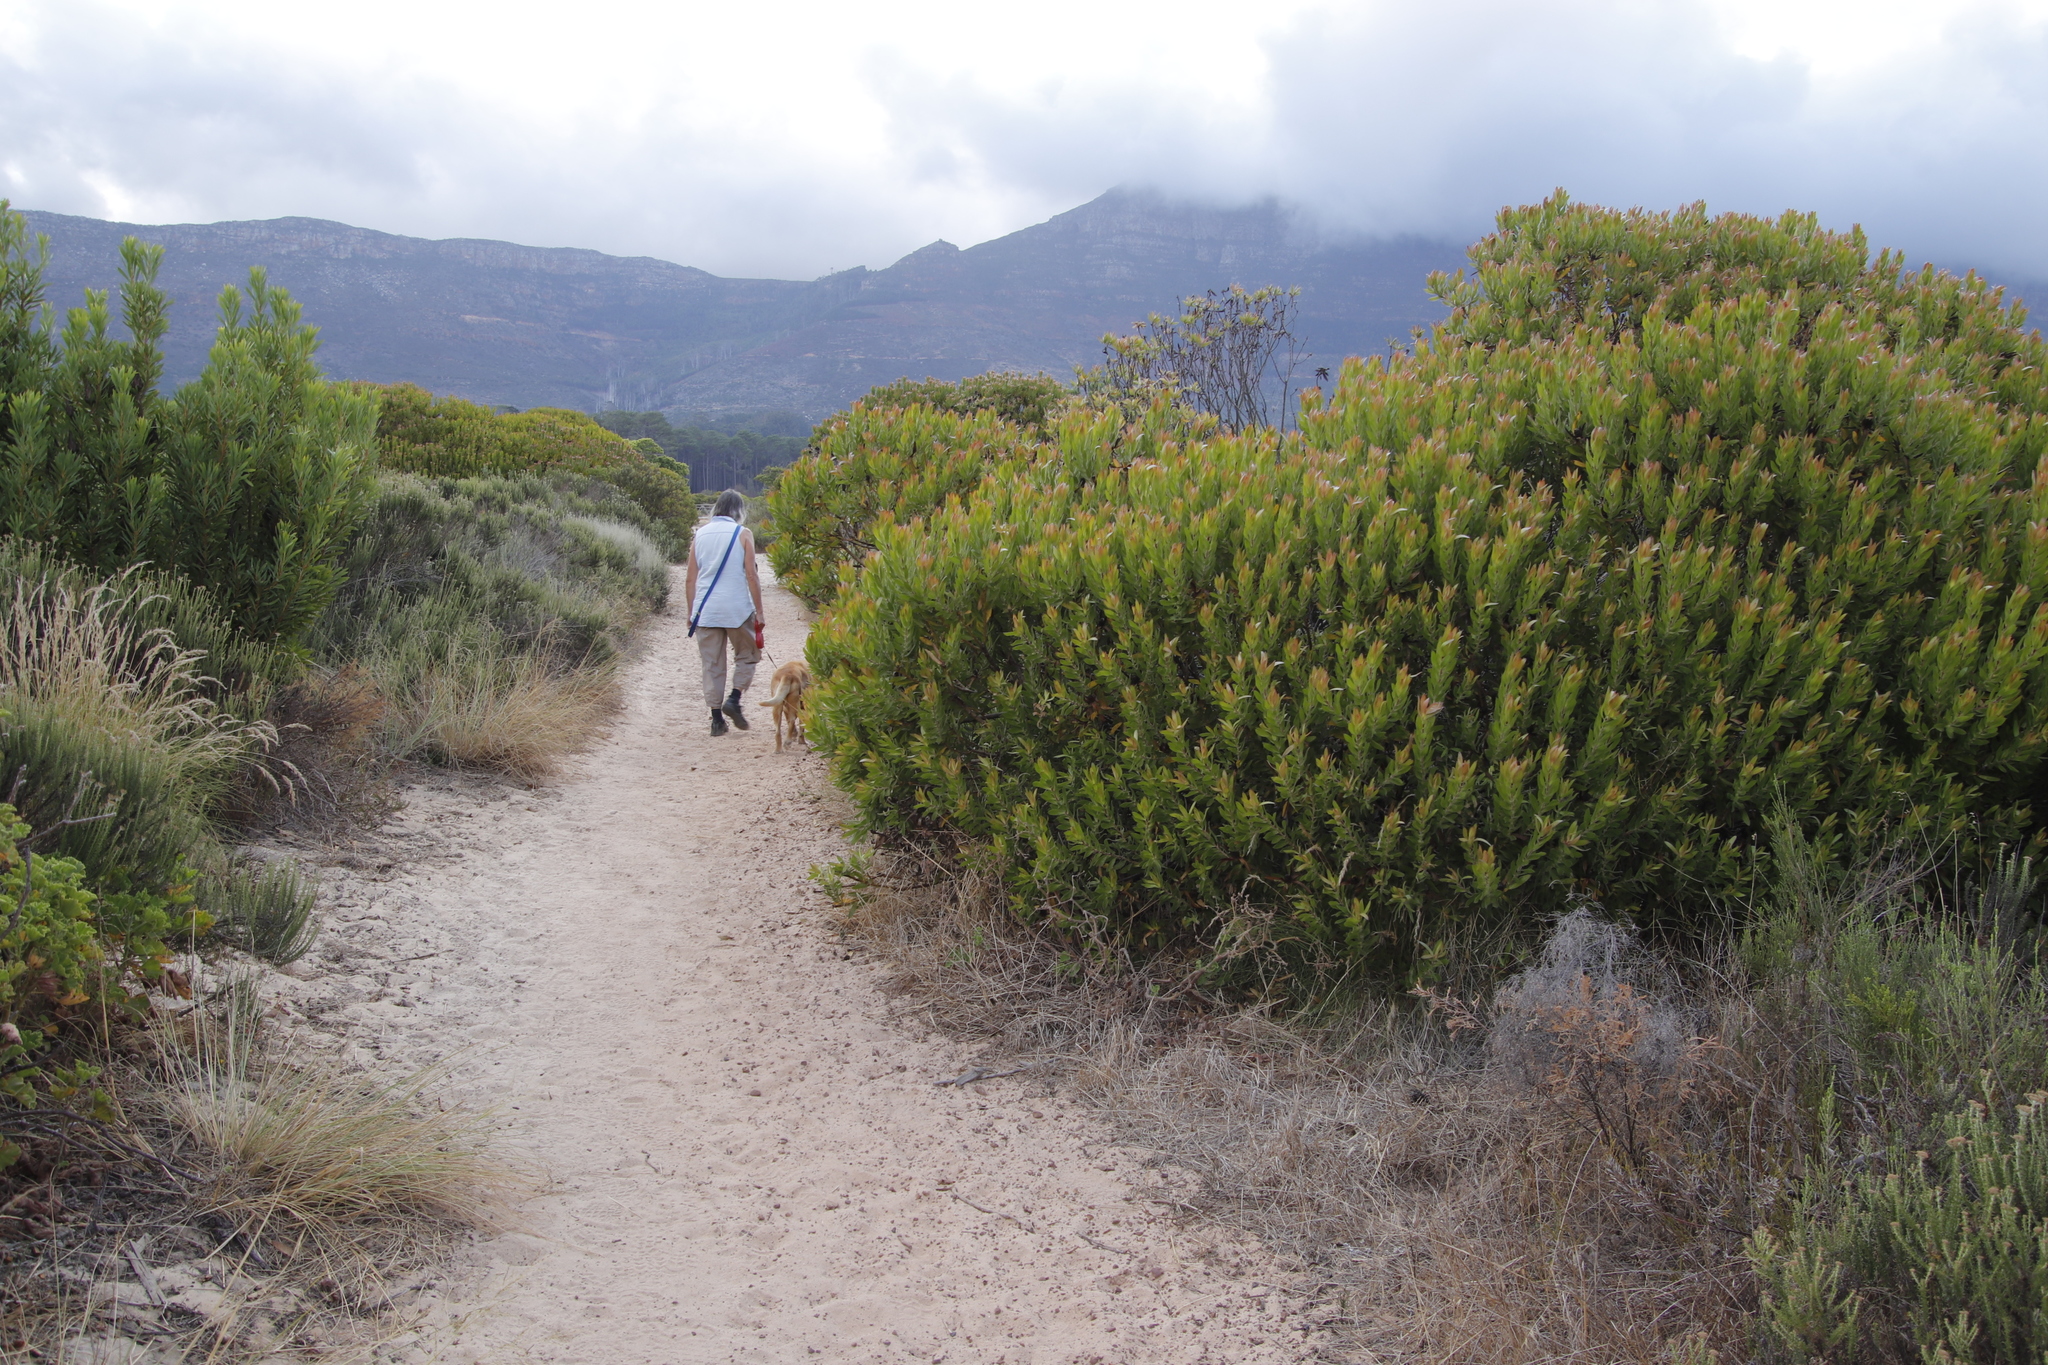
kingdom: Plantae
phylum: Tracheophyta
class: Magnoliopsida
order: Proteales
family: Proteaceae
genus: Leucadendron
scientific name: Leucadendron laureolum
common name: Golden sunshinebush
